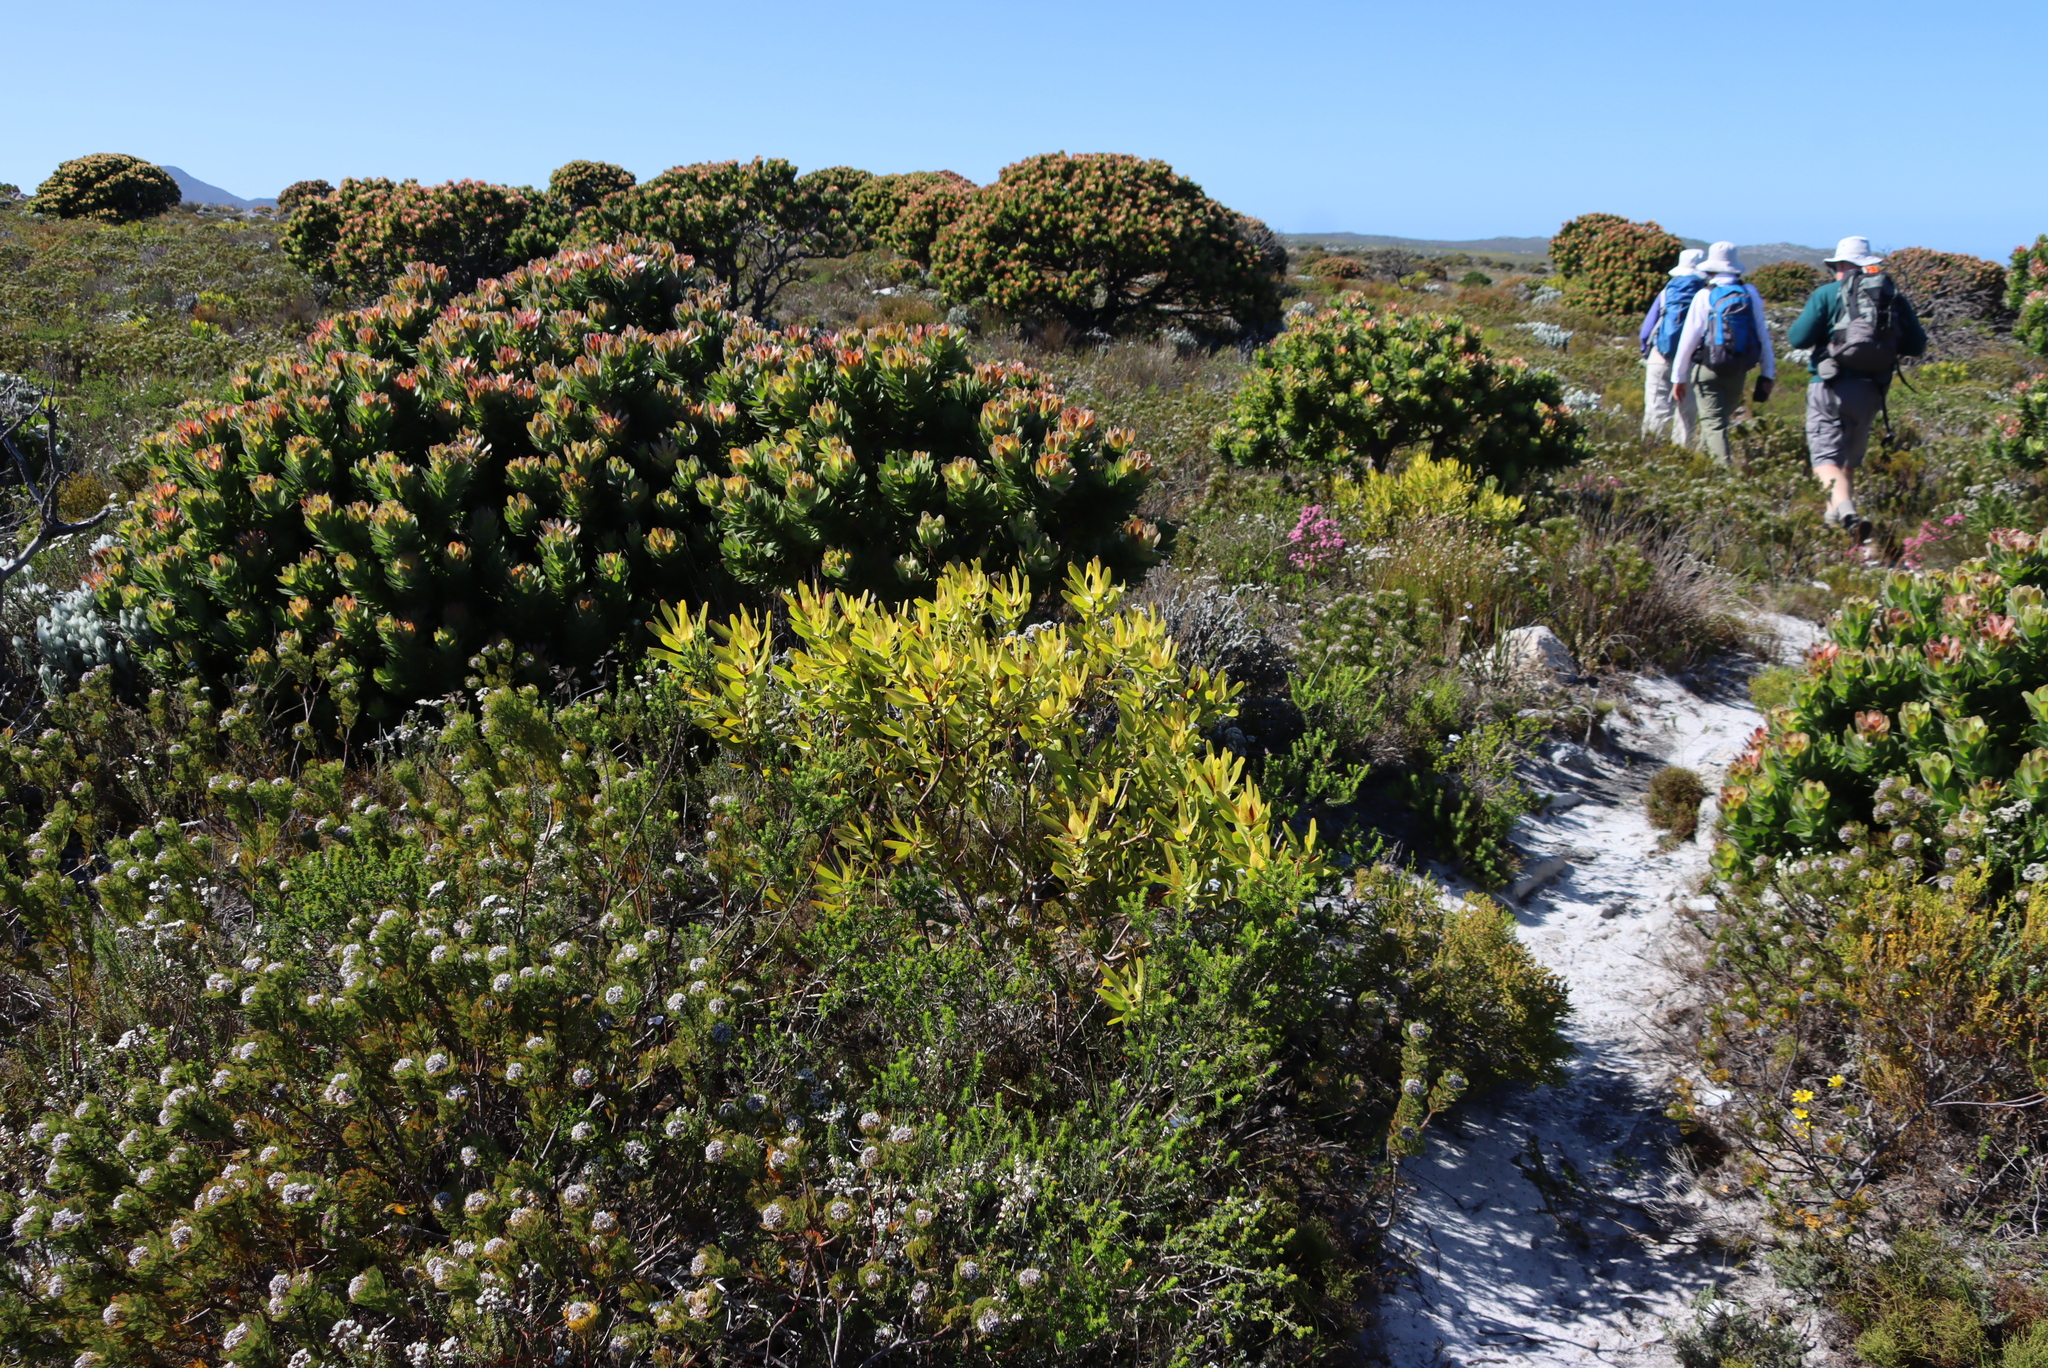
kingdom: Plantae
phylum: Tracheophyta
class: Magnoliopsida
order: Proteales
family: Proteaceae
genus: Leucadendron
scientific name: Leucadendron laureolum
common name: Golden sunshinebush
